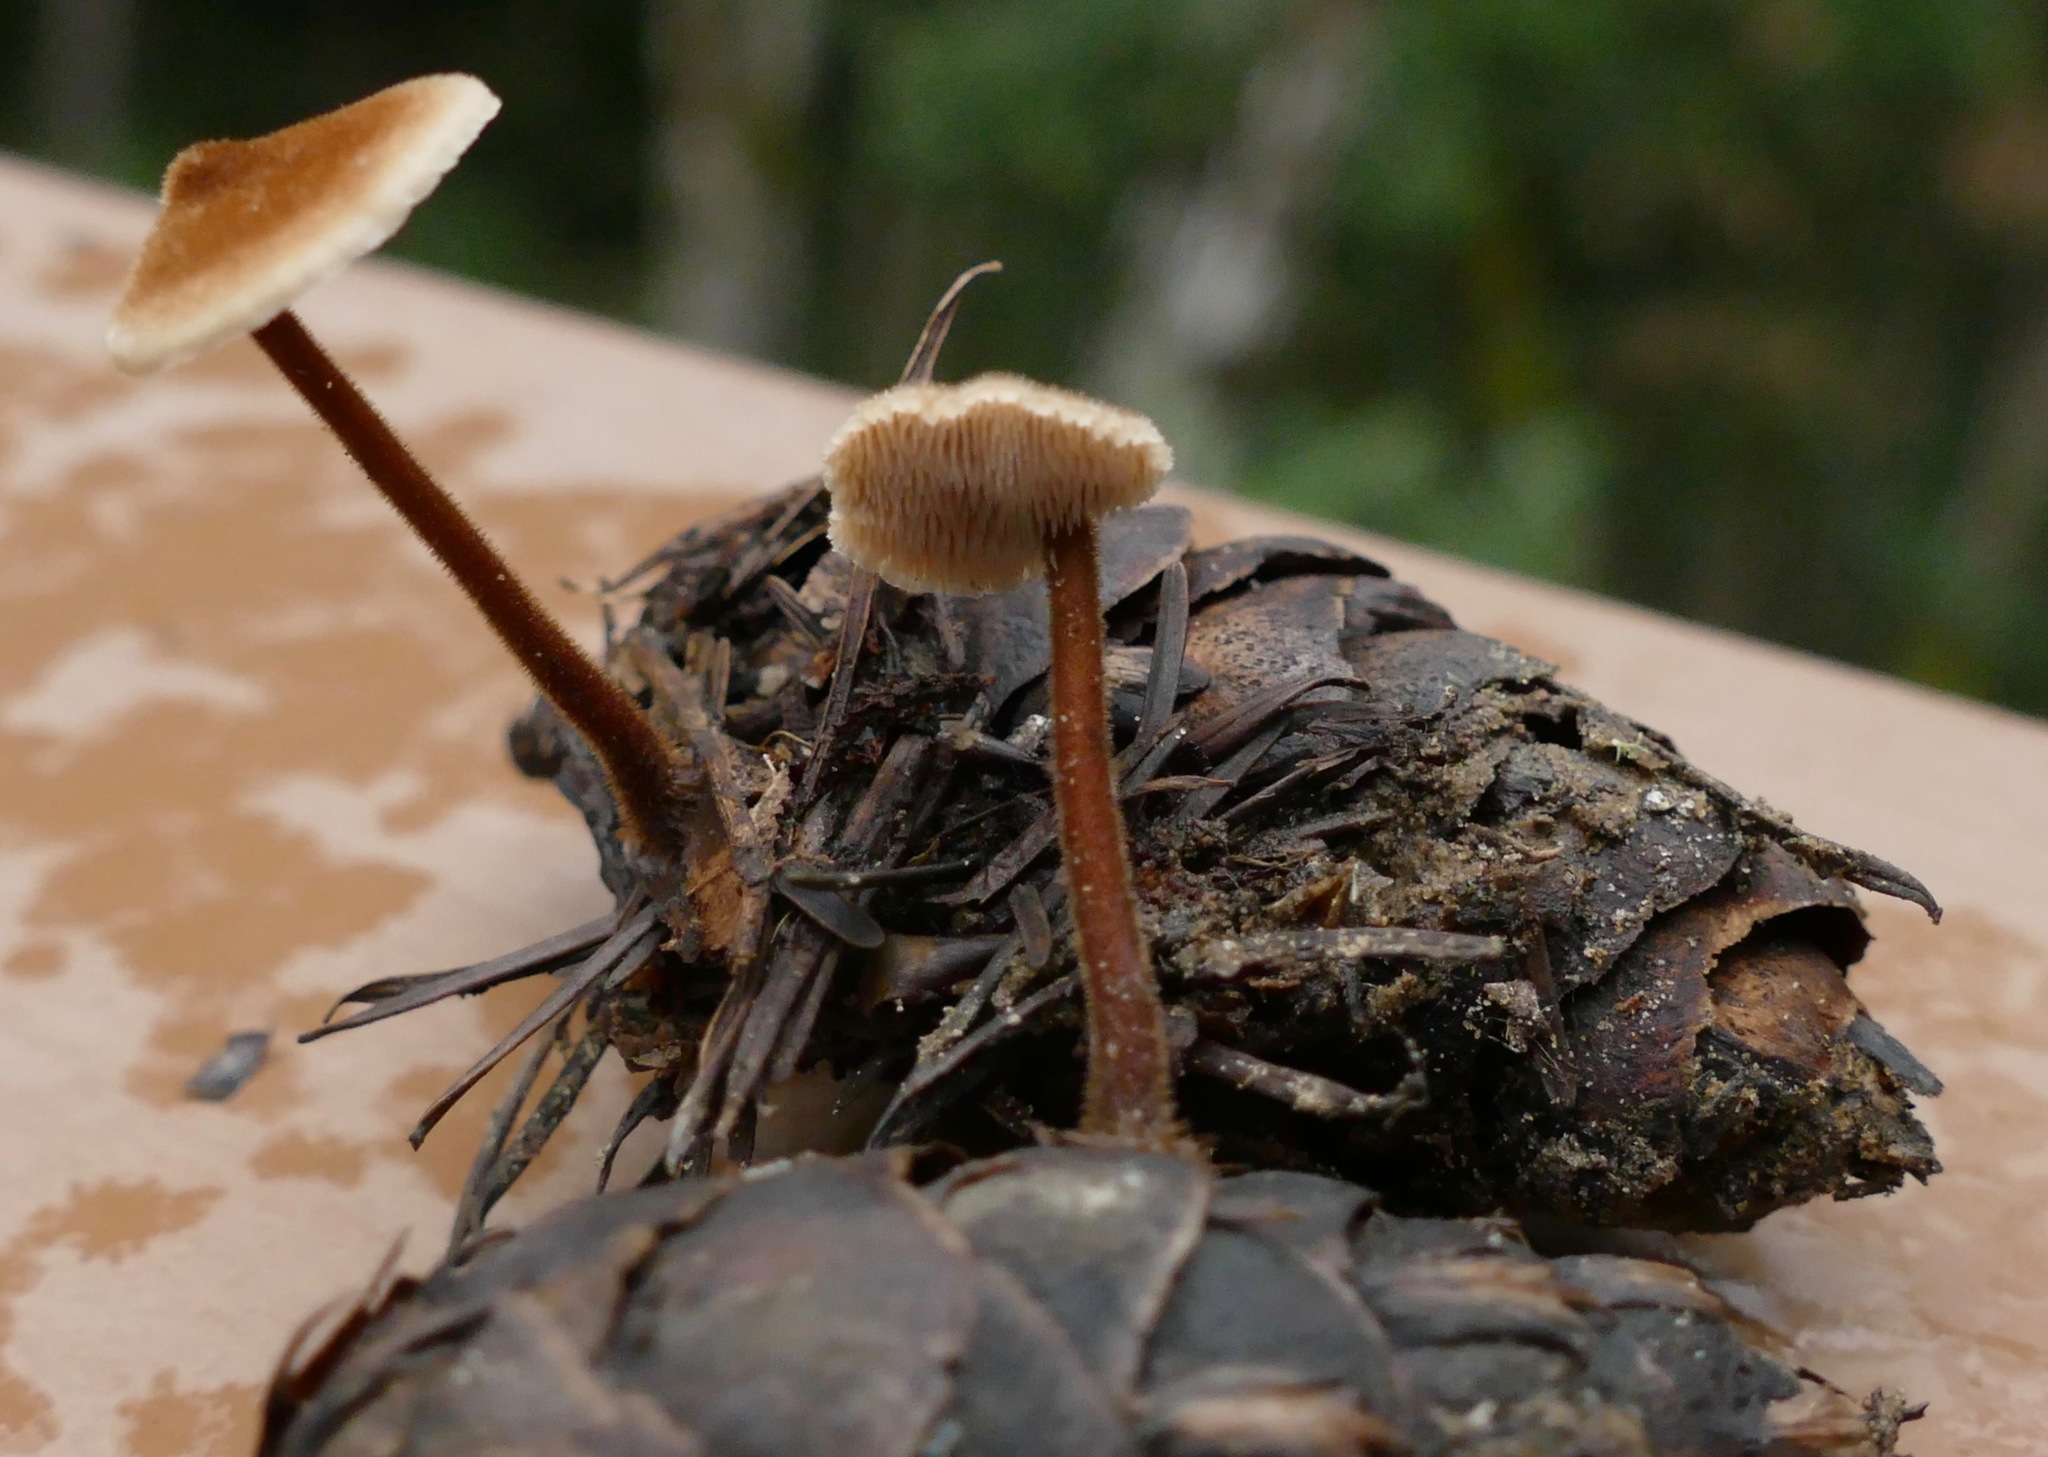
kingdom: Fungi
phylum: Basidiomycota
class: Agaricomycetes
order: Russulales
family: Auriscalpiaceae
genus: Auriscalpium
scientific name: Auriscalpium vulgare
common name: Earpick fungus
